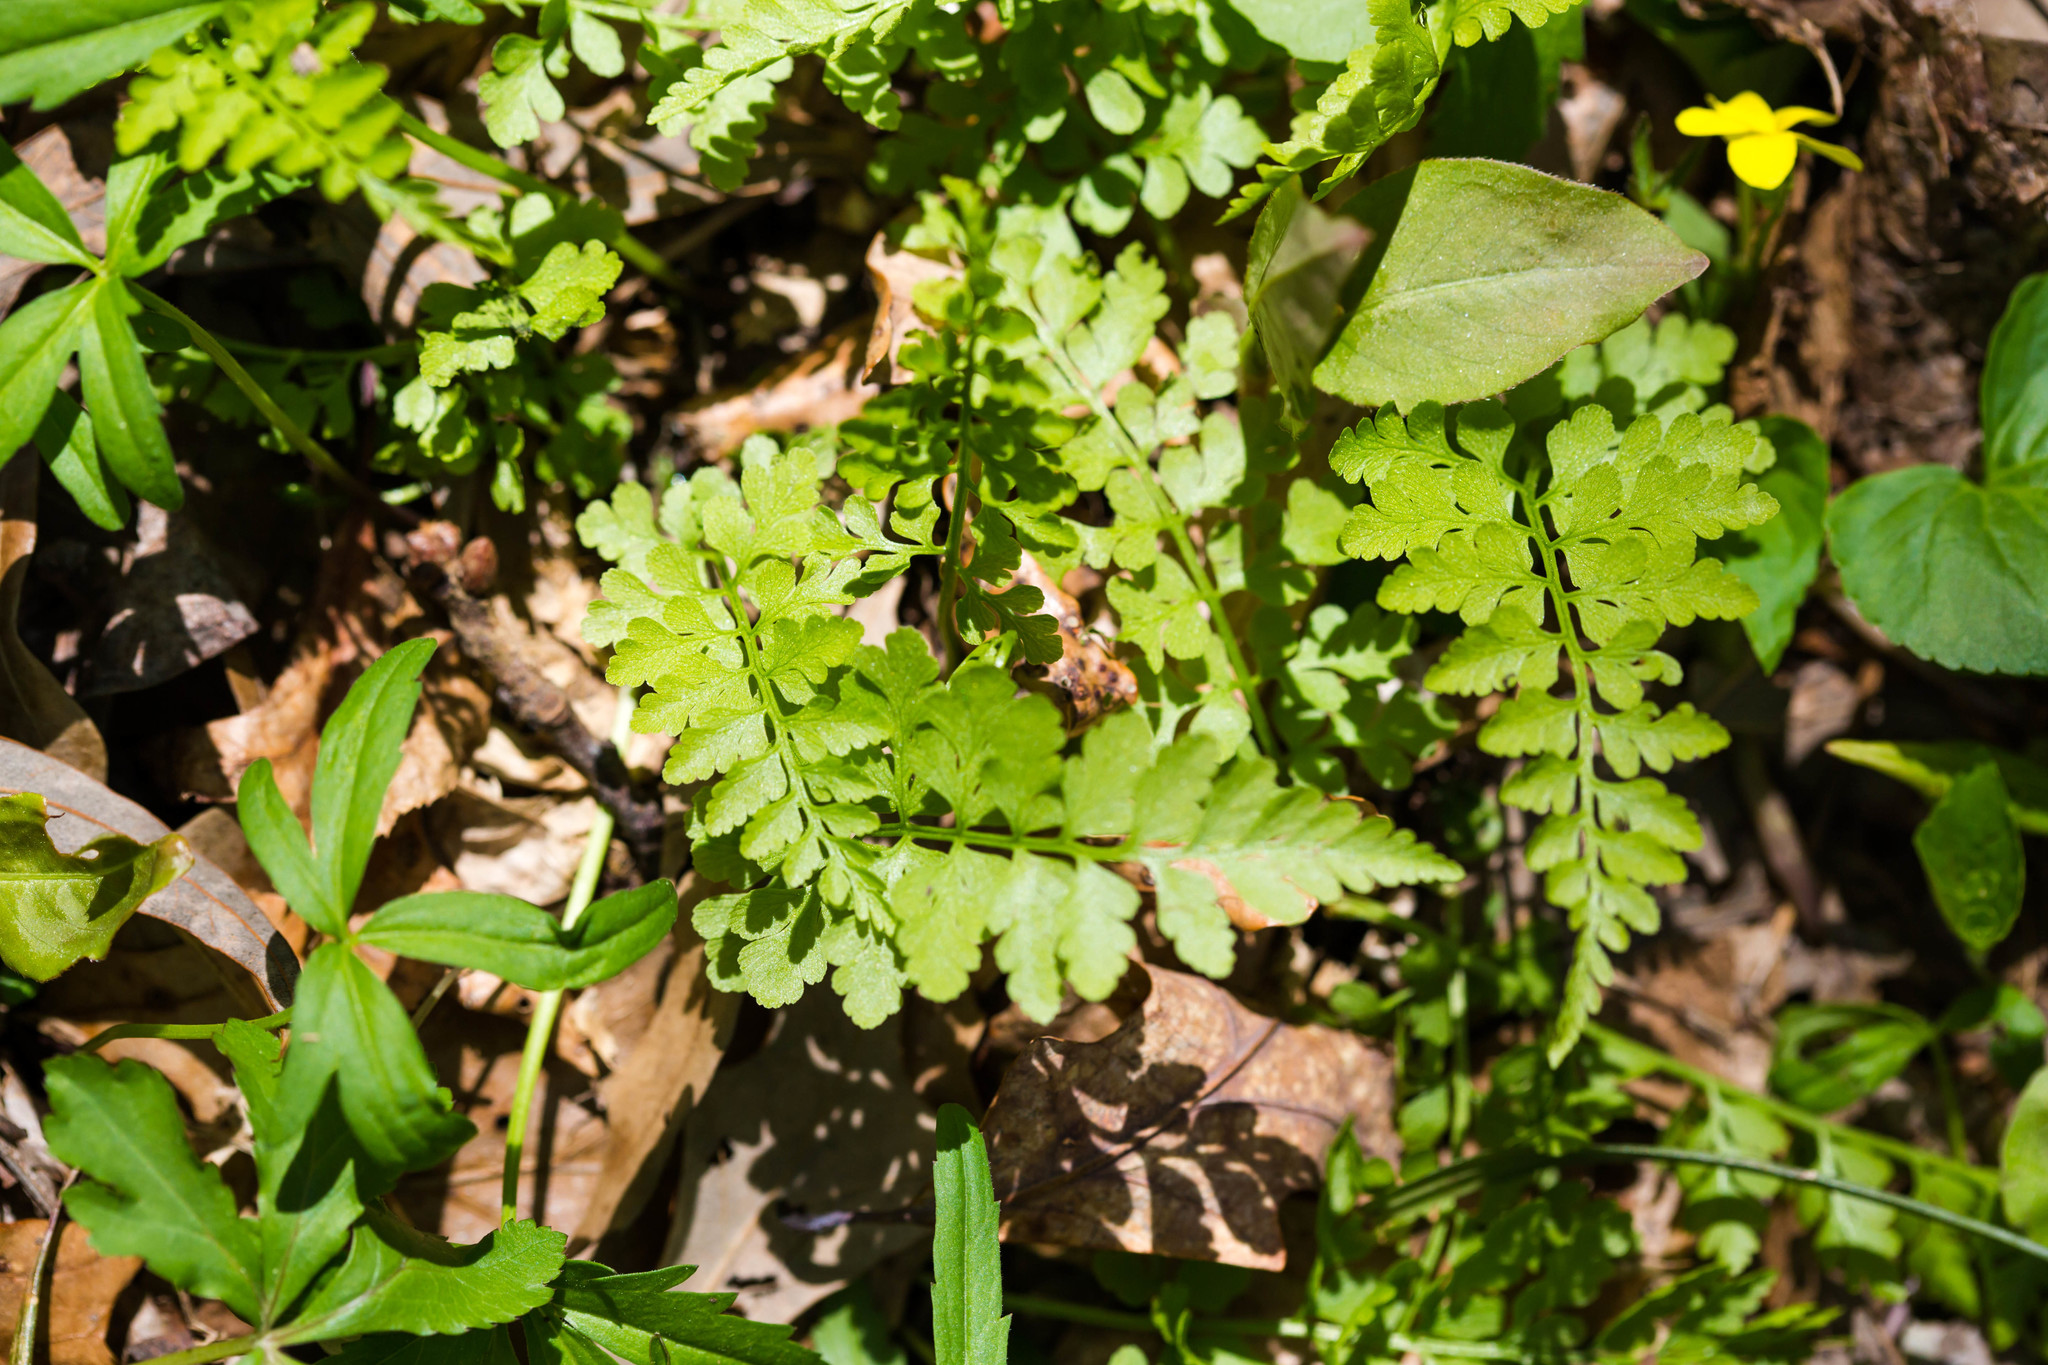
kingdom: Plantae
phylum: Tracheophyta
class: Polypodiopsida
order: Polypodiales
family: Cystopteridaceae
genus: Cystopteris
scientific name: Cystopteris protrusa
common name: Lowland brittle fern
